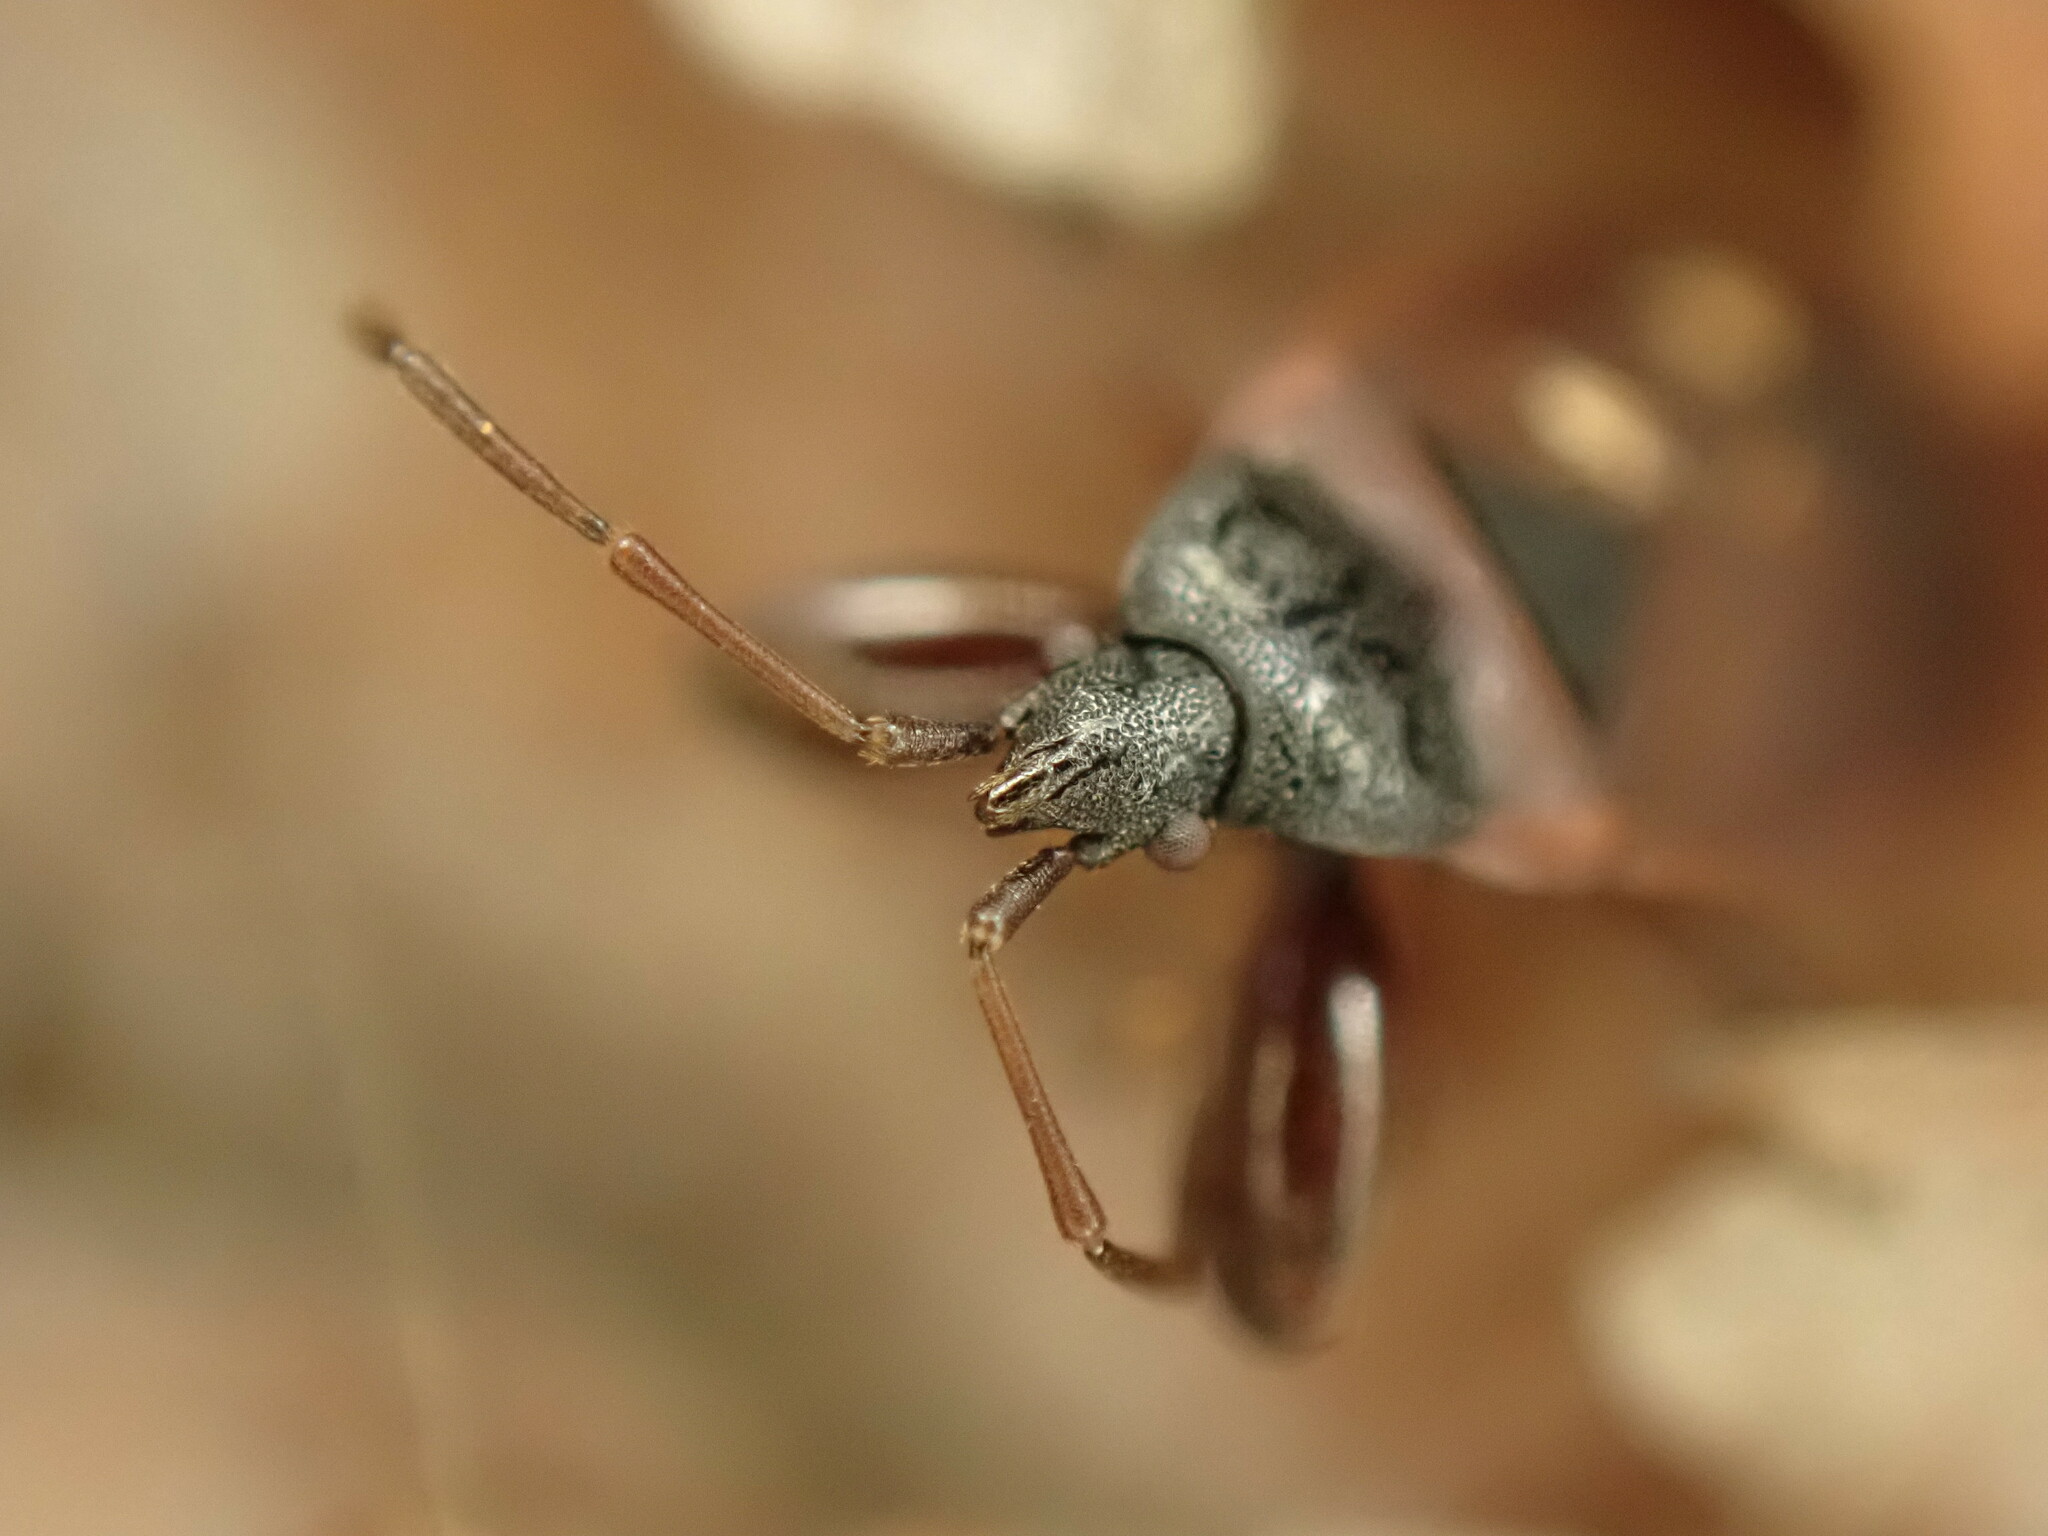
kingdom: Animalia
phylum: Arthropoda
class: Insecta
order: Hemiptera
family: Rhyparochromidae
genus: Gastrodes
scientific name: Gastrodes grossipes
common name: Pine cone bug
